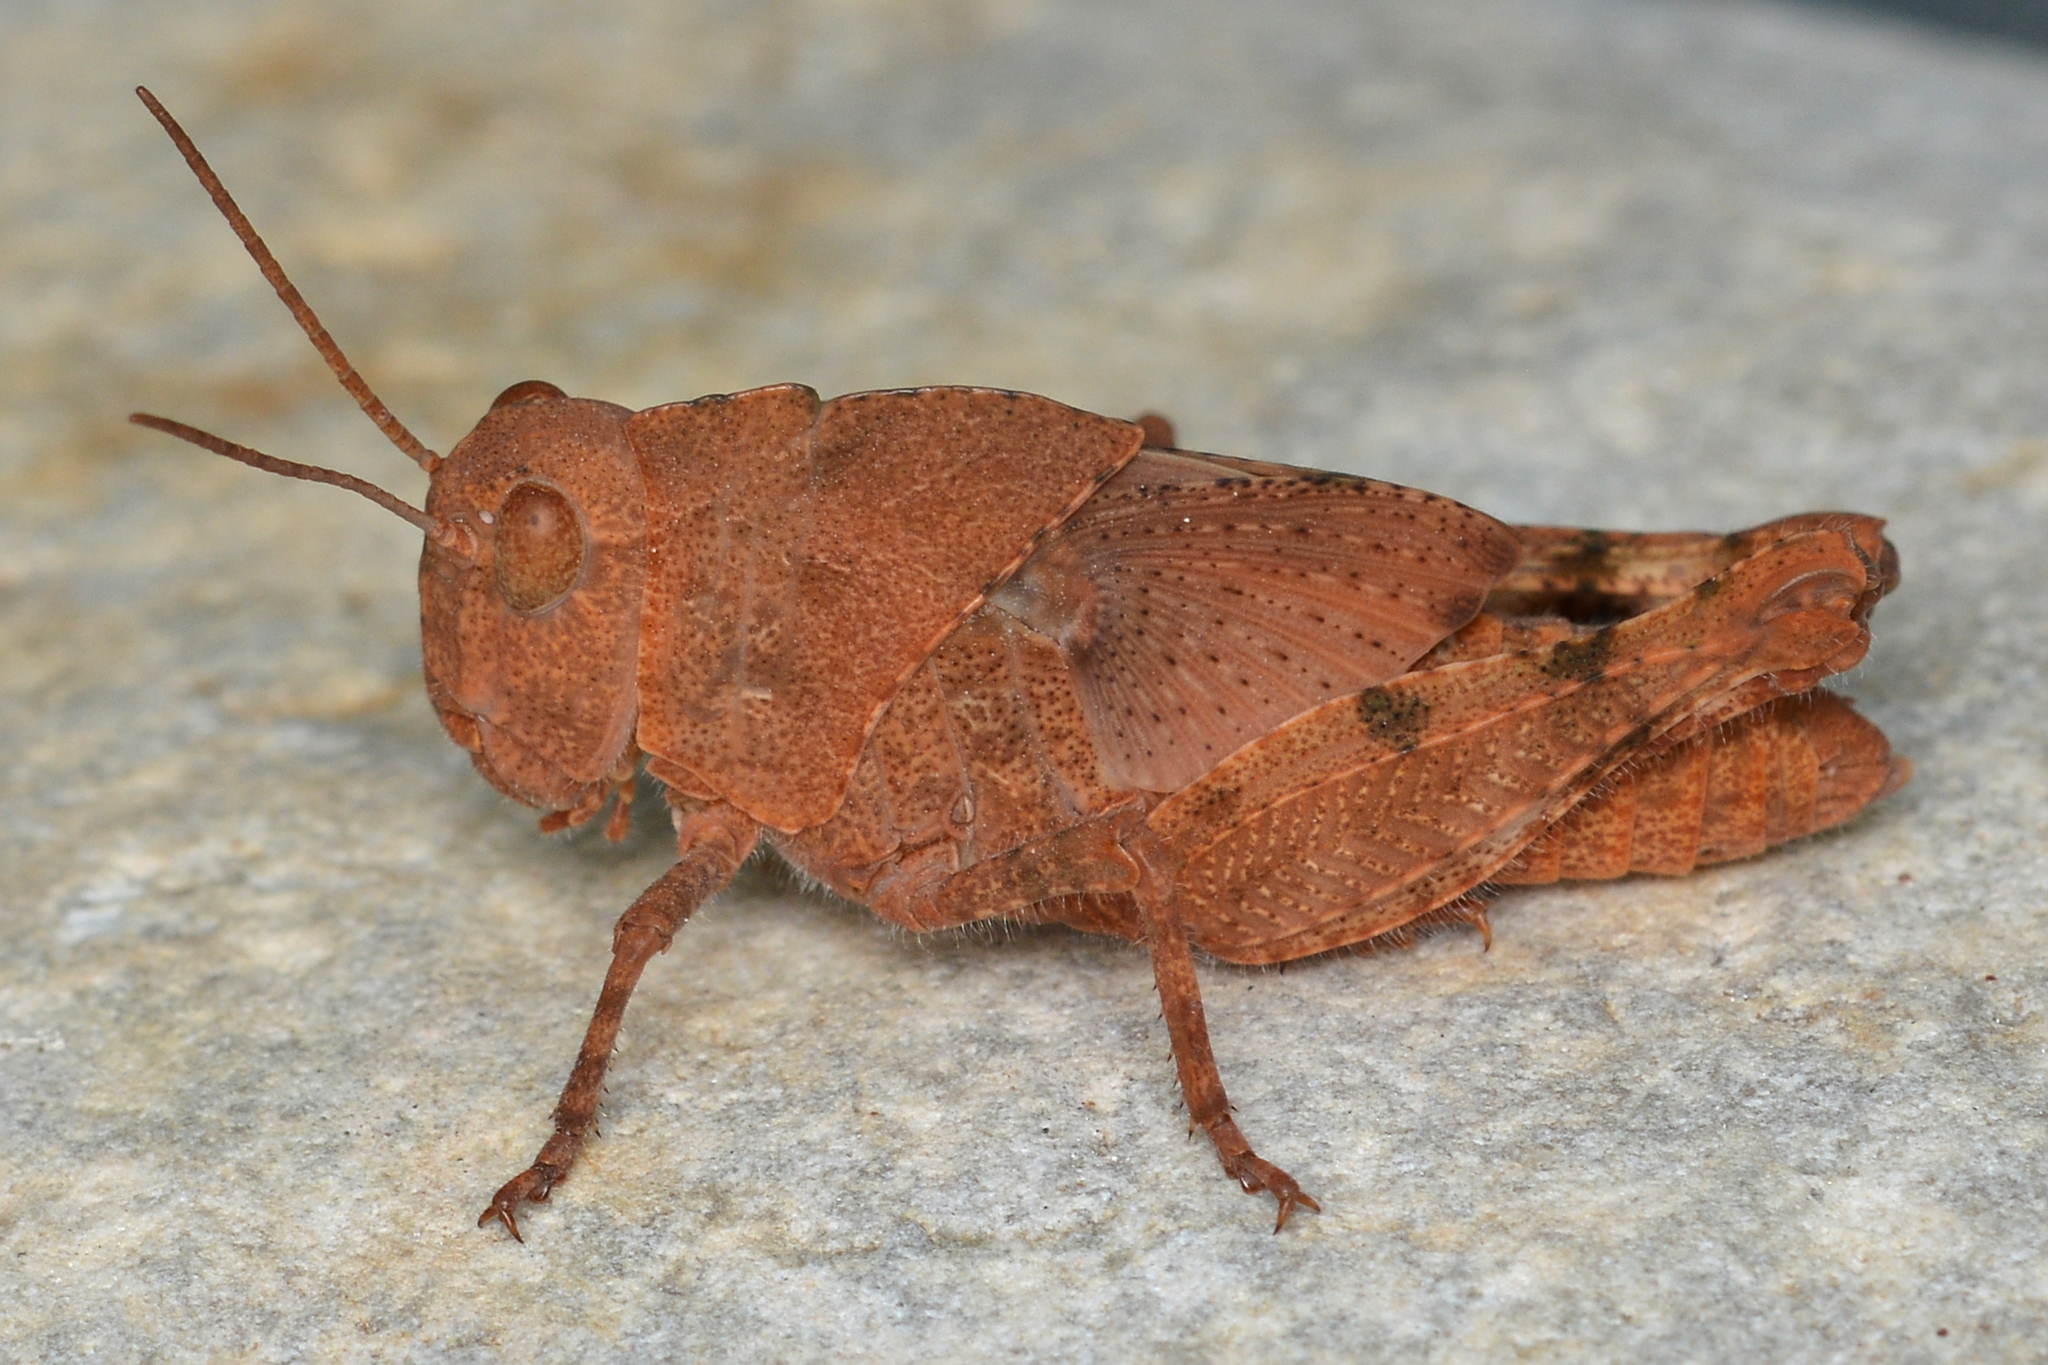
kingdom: Animalia
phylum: Arthropoda
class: Insecta
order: Orthoptera
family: Acrididae
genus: Dissosteira
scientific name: Dissosteira carolina
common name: Carolina grasshopper
